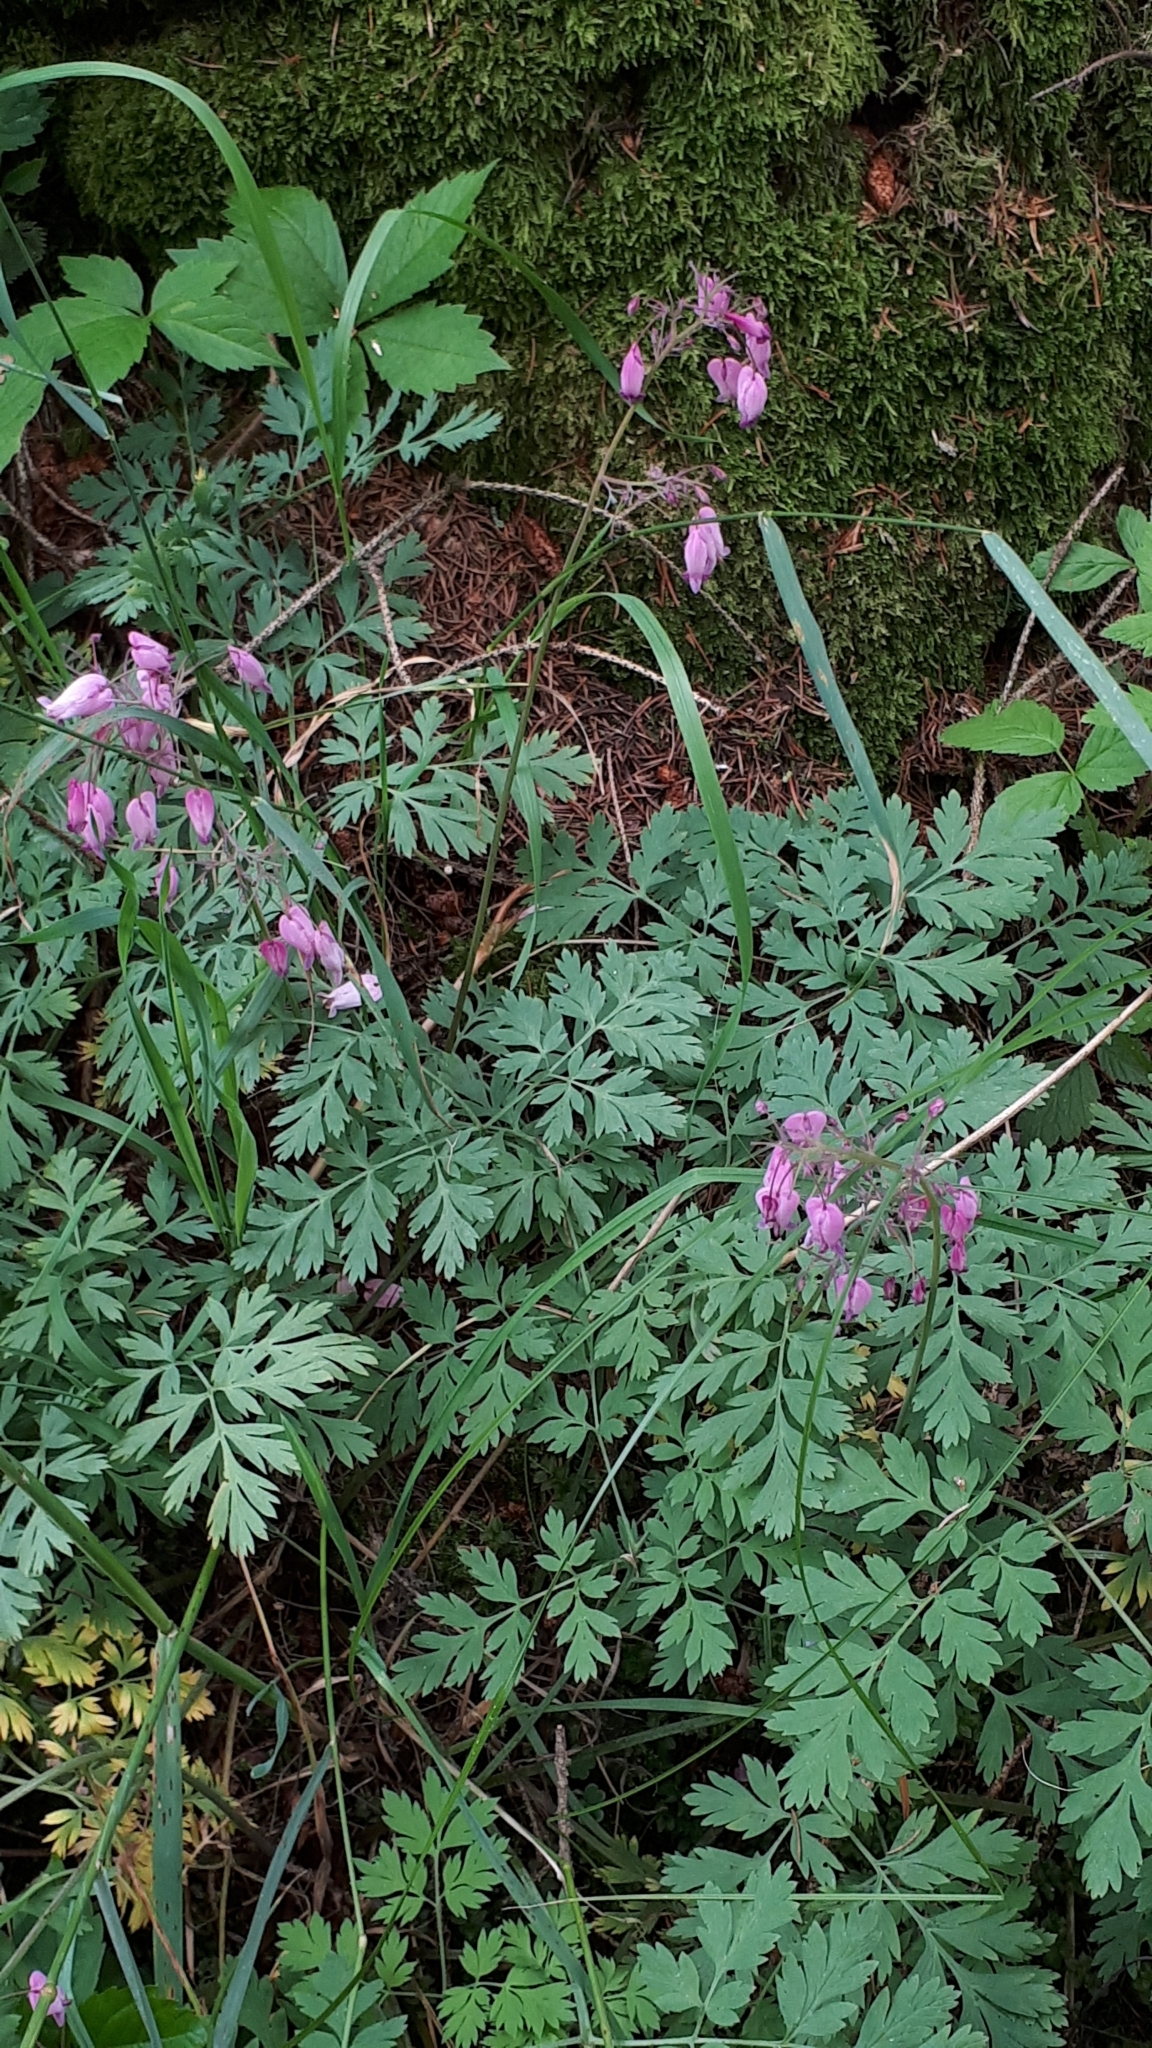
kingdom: Plantae
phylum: Tracheophyta
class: Magnoliopsida
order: Ranunculales
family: Papaveraceae
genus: Dicentra
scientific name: Dicentra formosa
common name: Bleeding-heart
